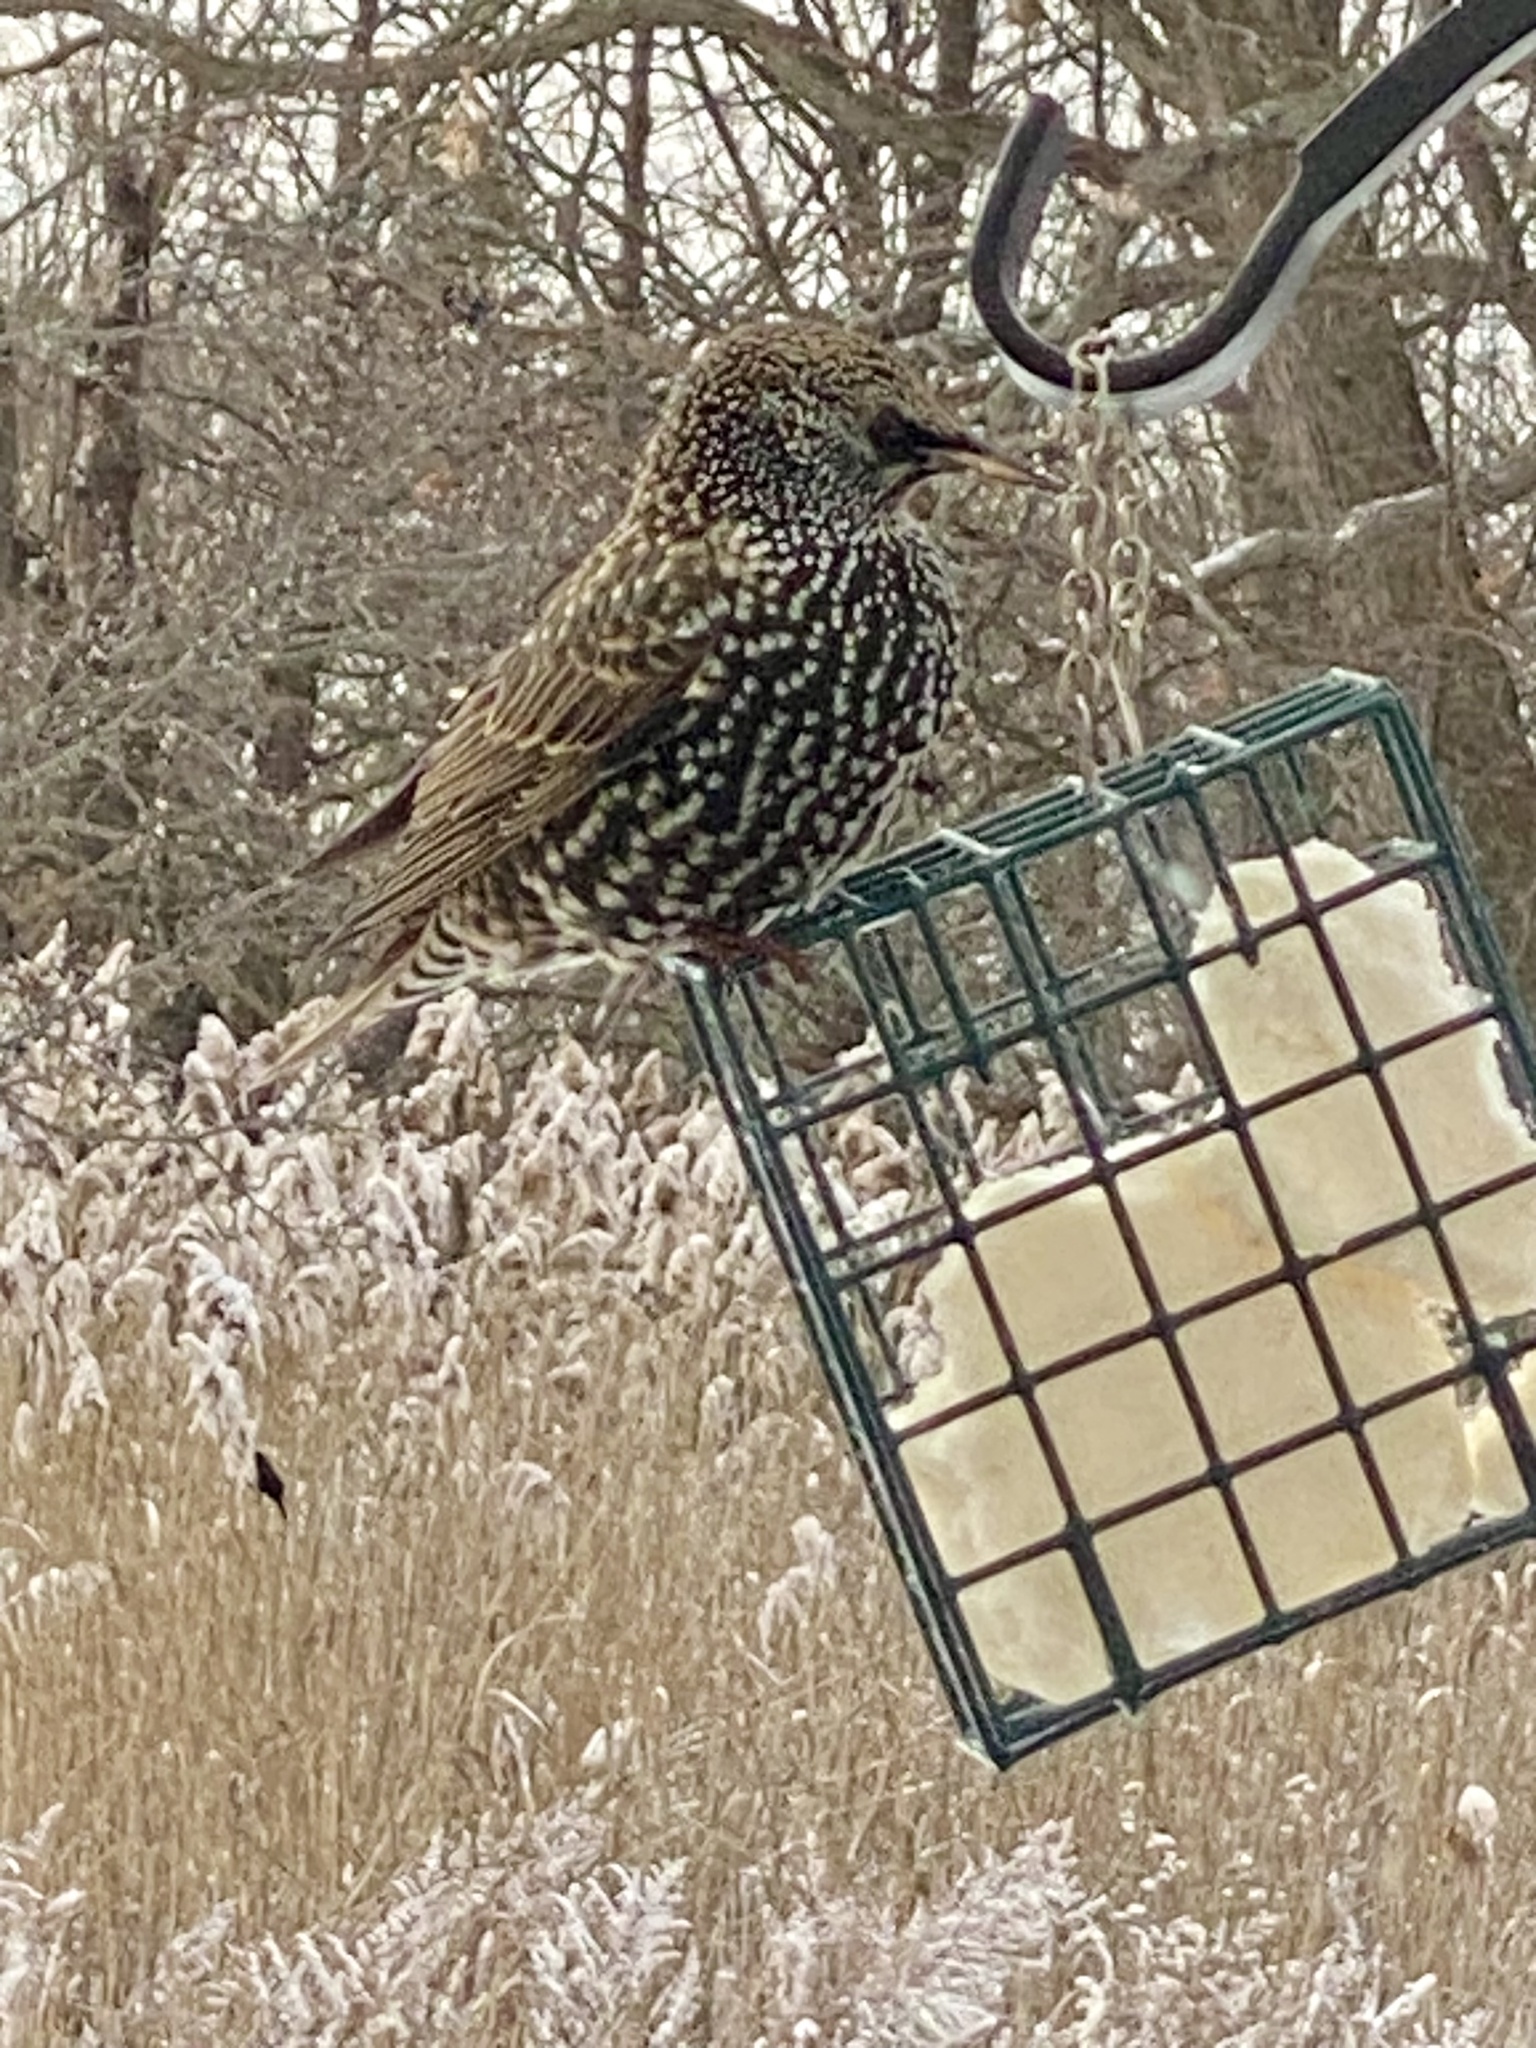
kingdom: Animalia
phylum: Chordata
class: Aves
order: Passeriformes
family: Sturnidae
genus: Sturnus
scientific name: Sturnus vulgaris
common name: Common starling
